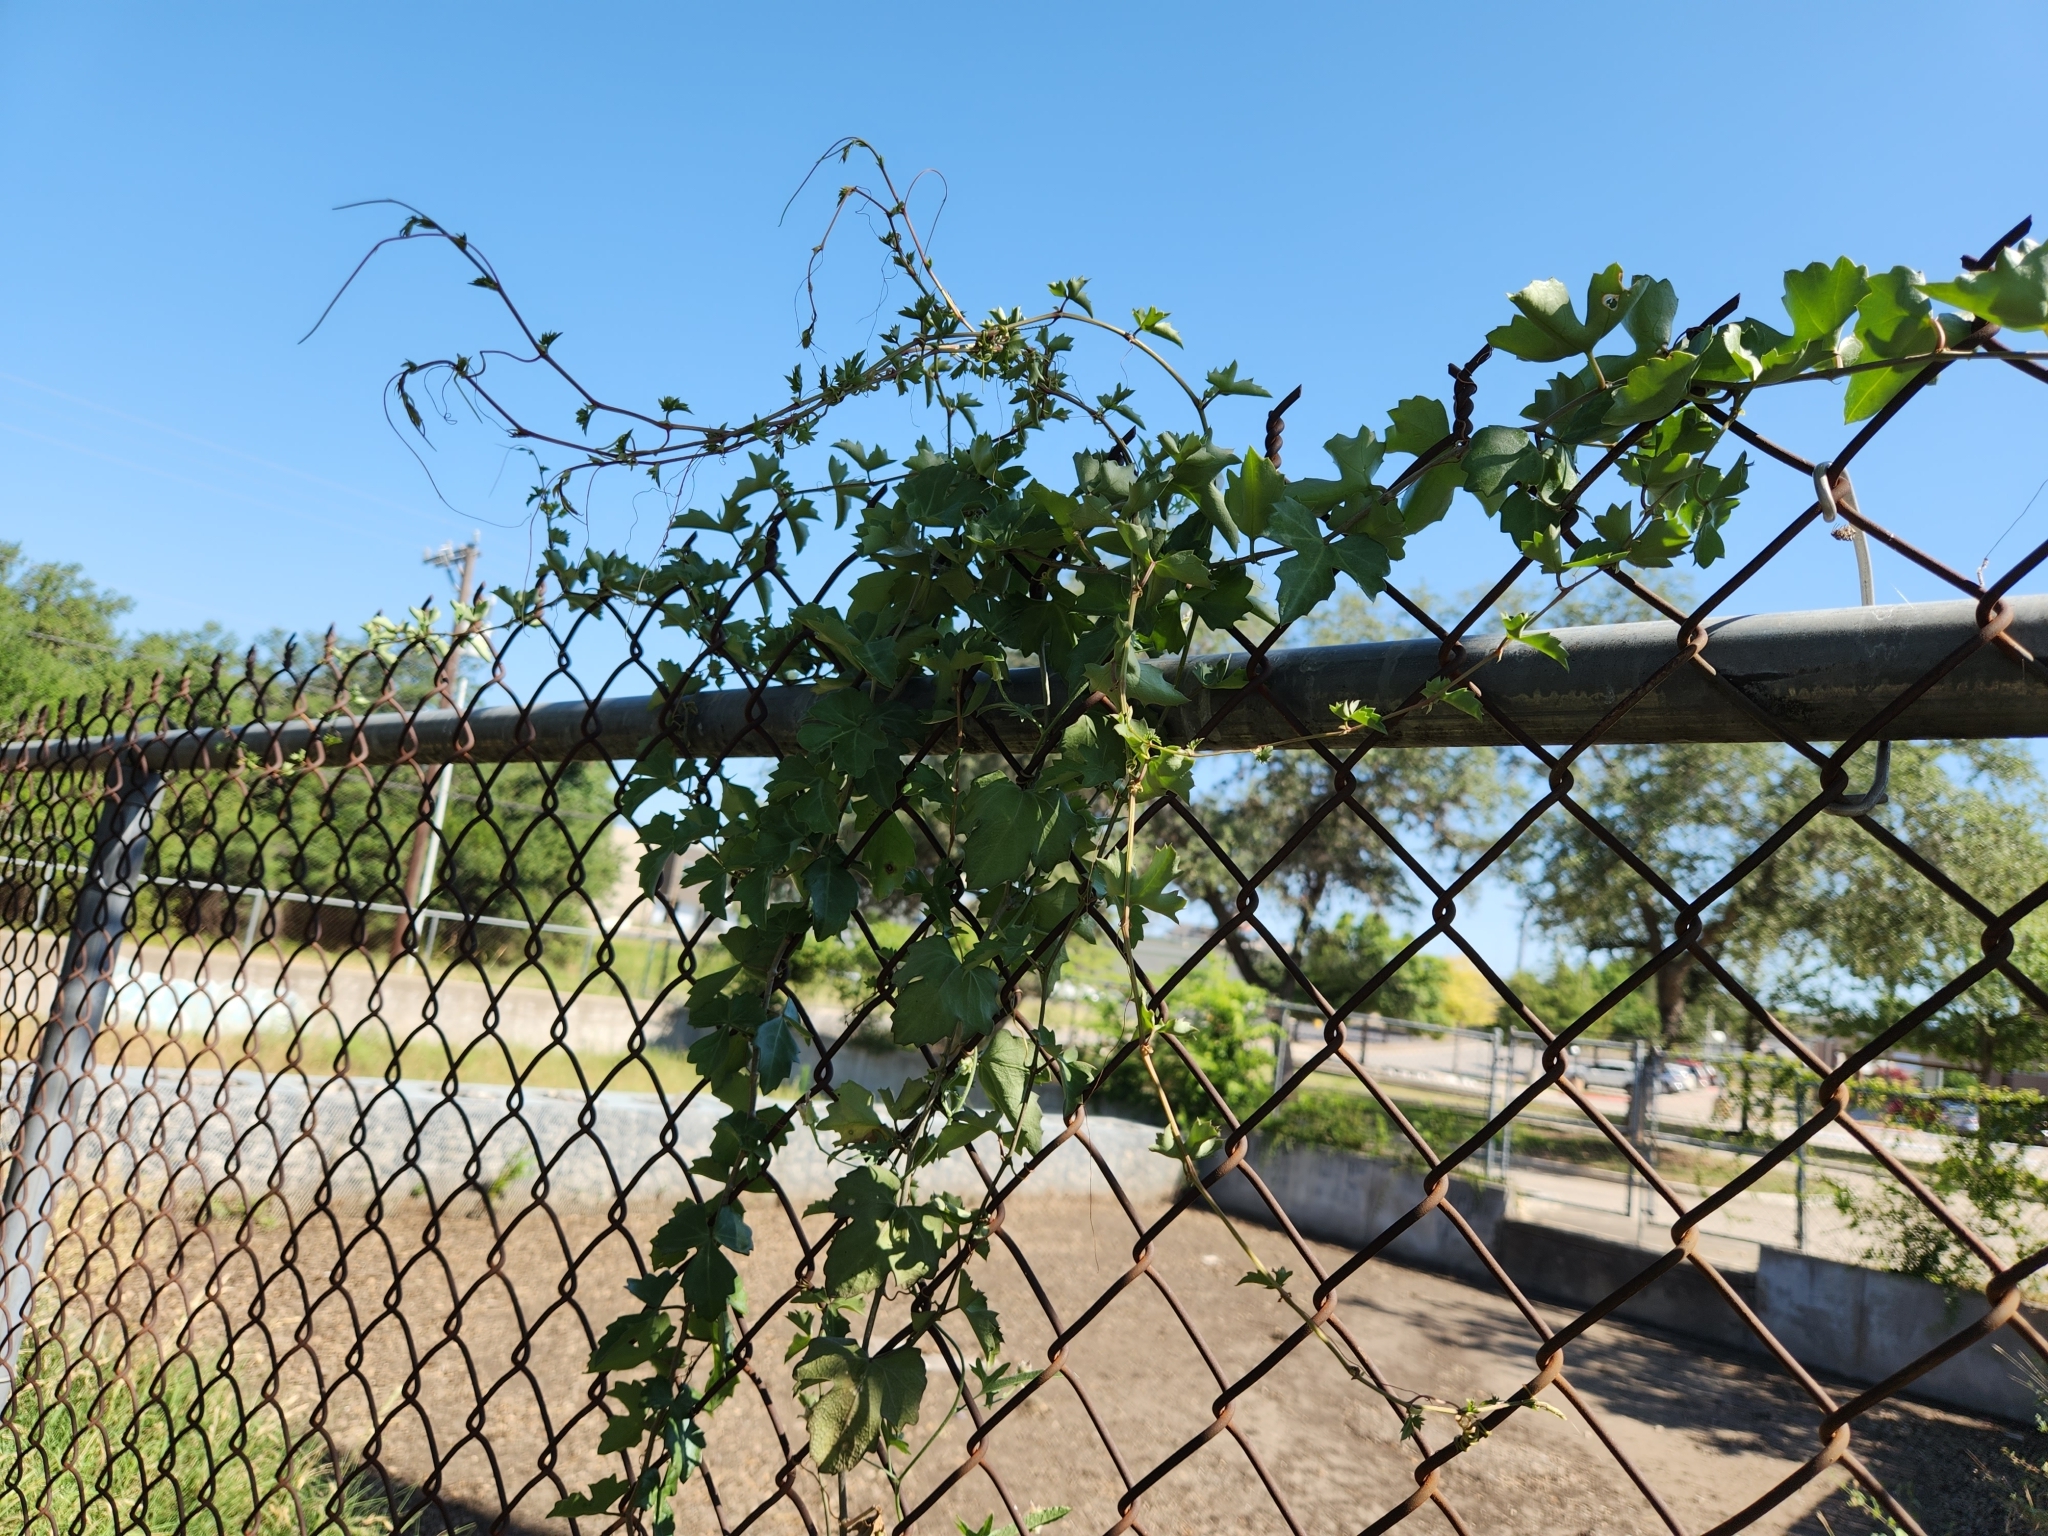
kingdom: Plantae
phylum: Tracheophyta
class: Magnoliopsida
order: Vitales
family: Vitaceae
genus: Cissus
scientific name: Cissus trifoliata
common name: Vine-sorrel
